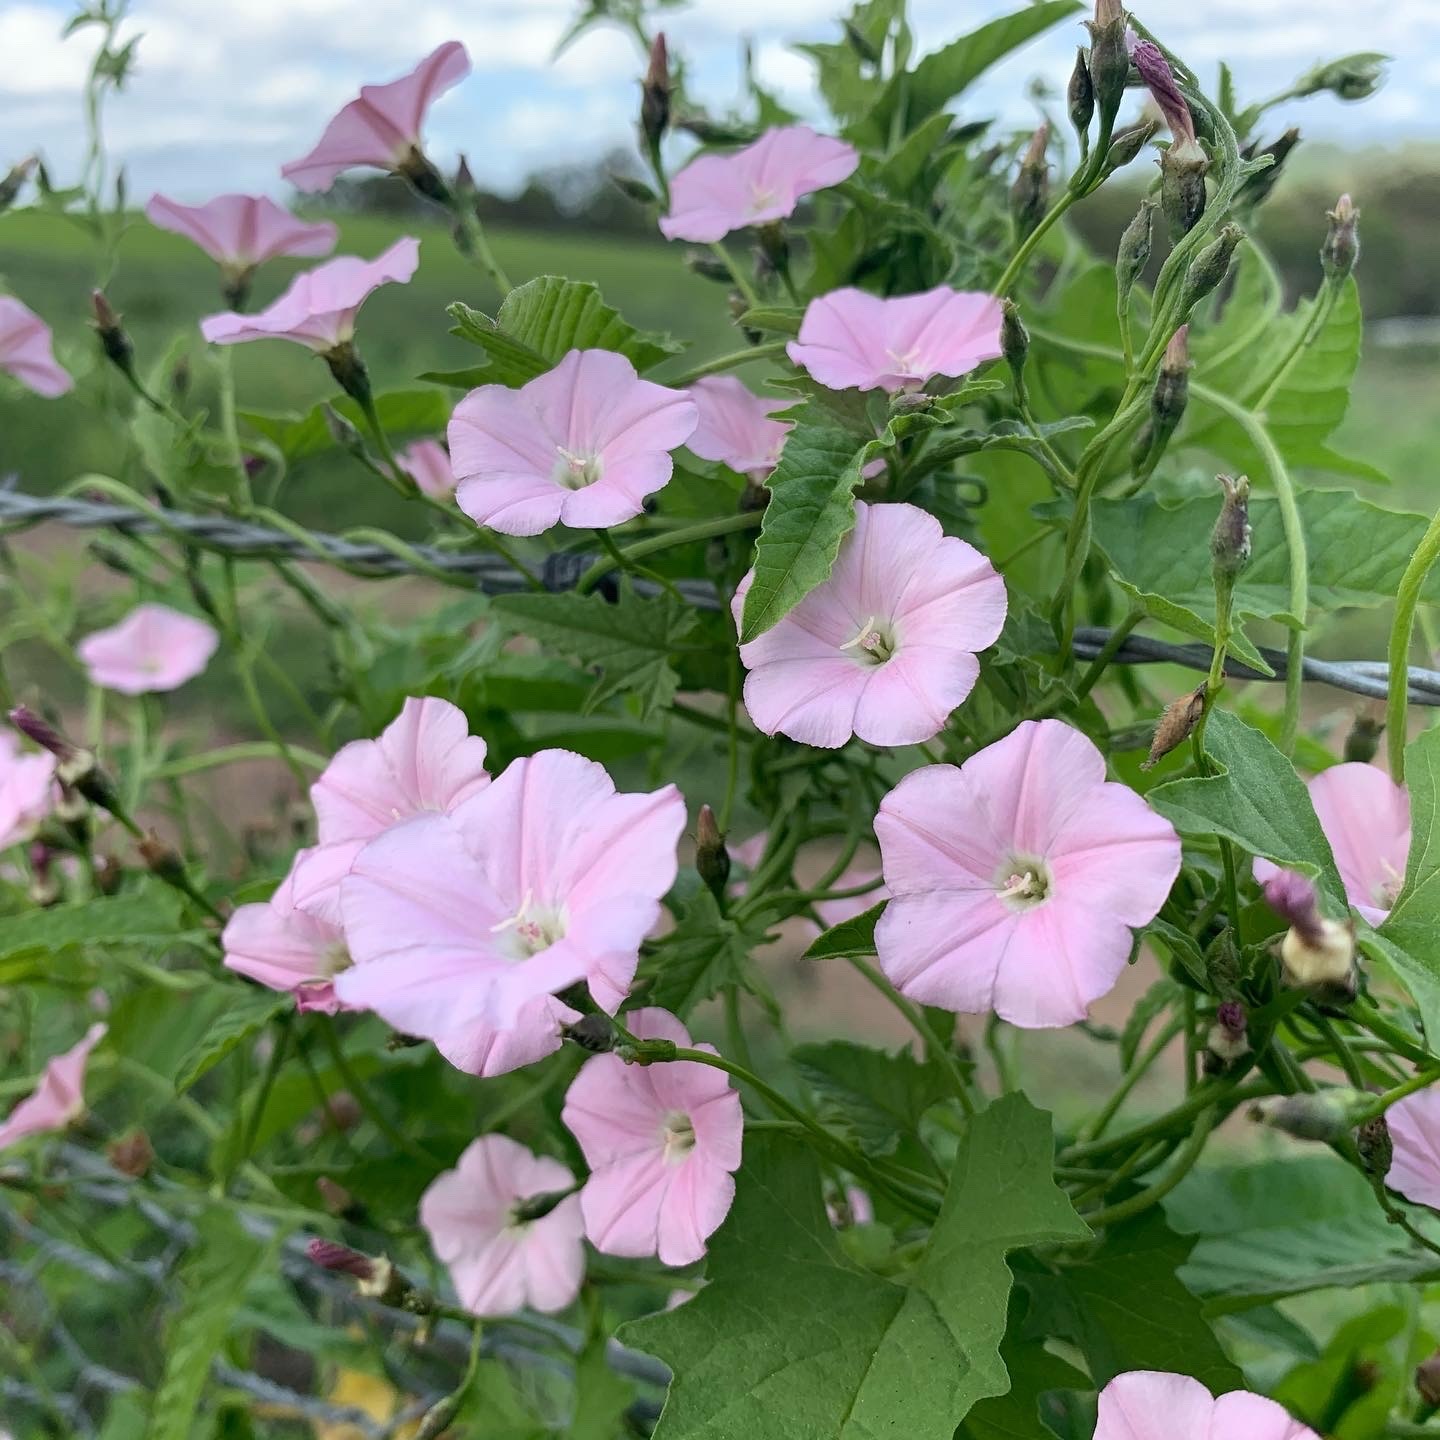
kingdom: Plantae
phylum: Tracheophyta
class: Magnoliopsida
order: Solanales
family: Convolvulaceae
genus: Convolvulus
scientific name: Convolvulus erubescens
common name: Australian bindweed
